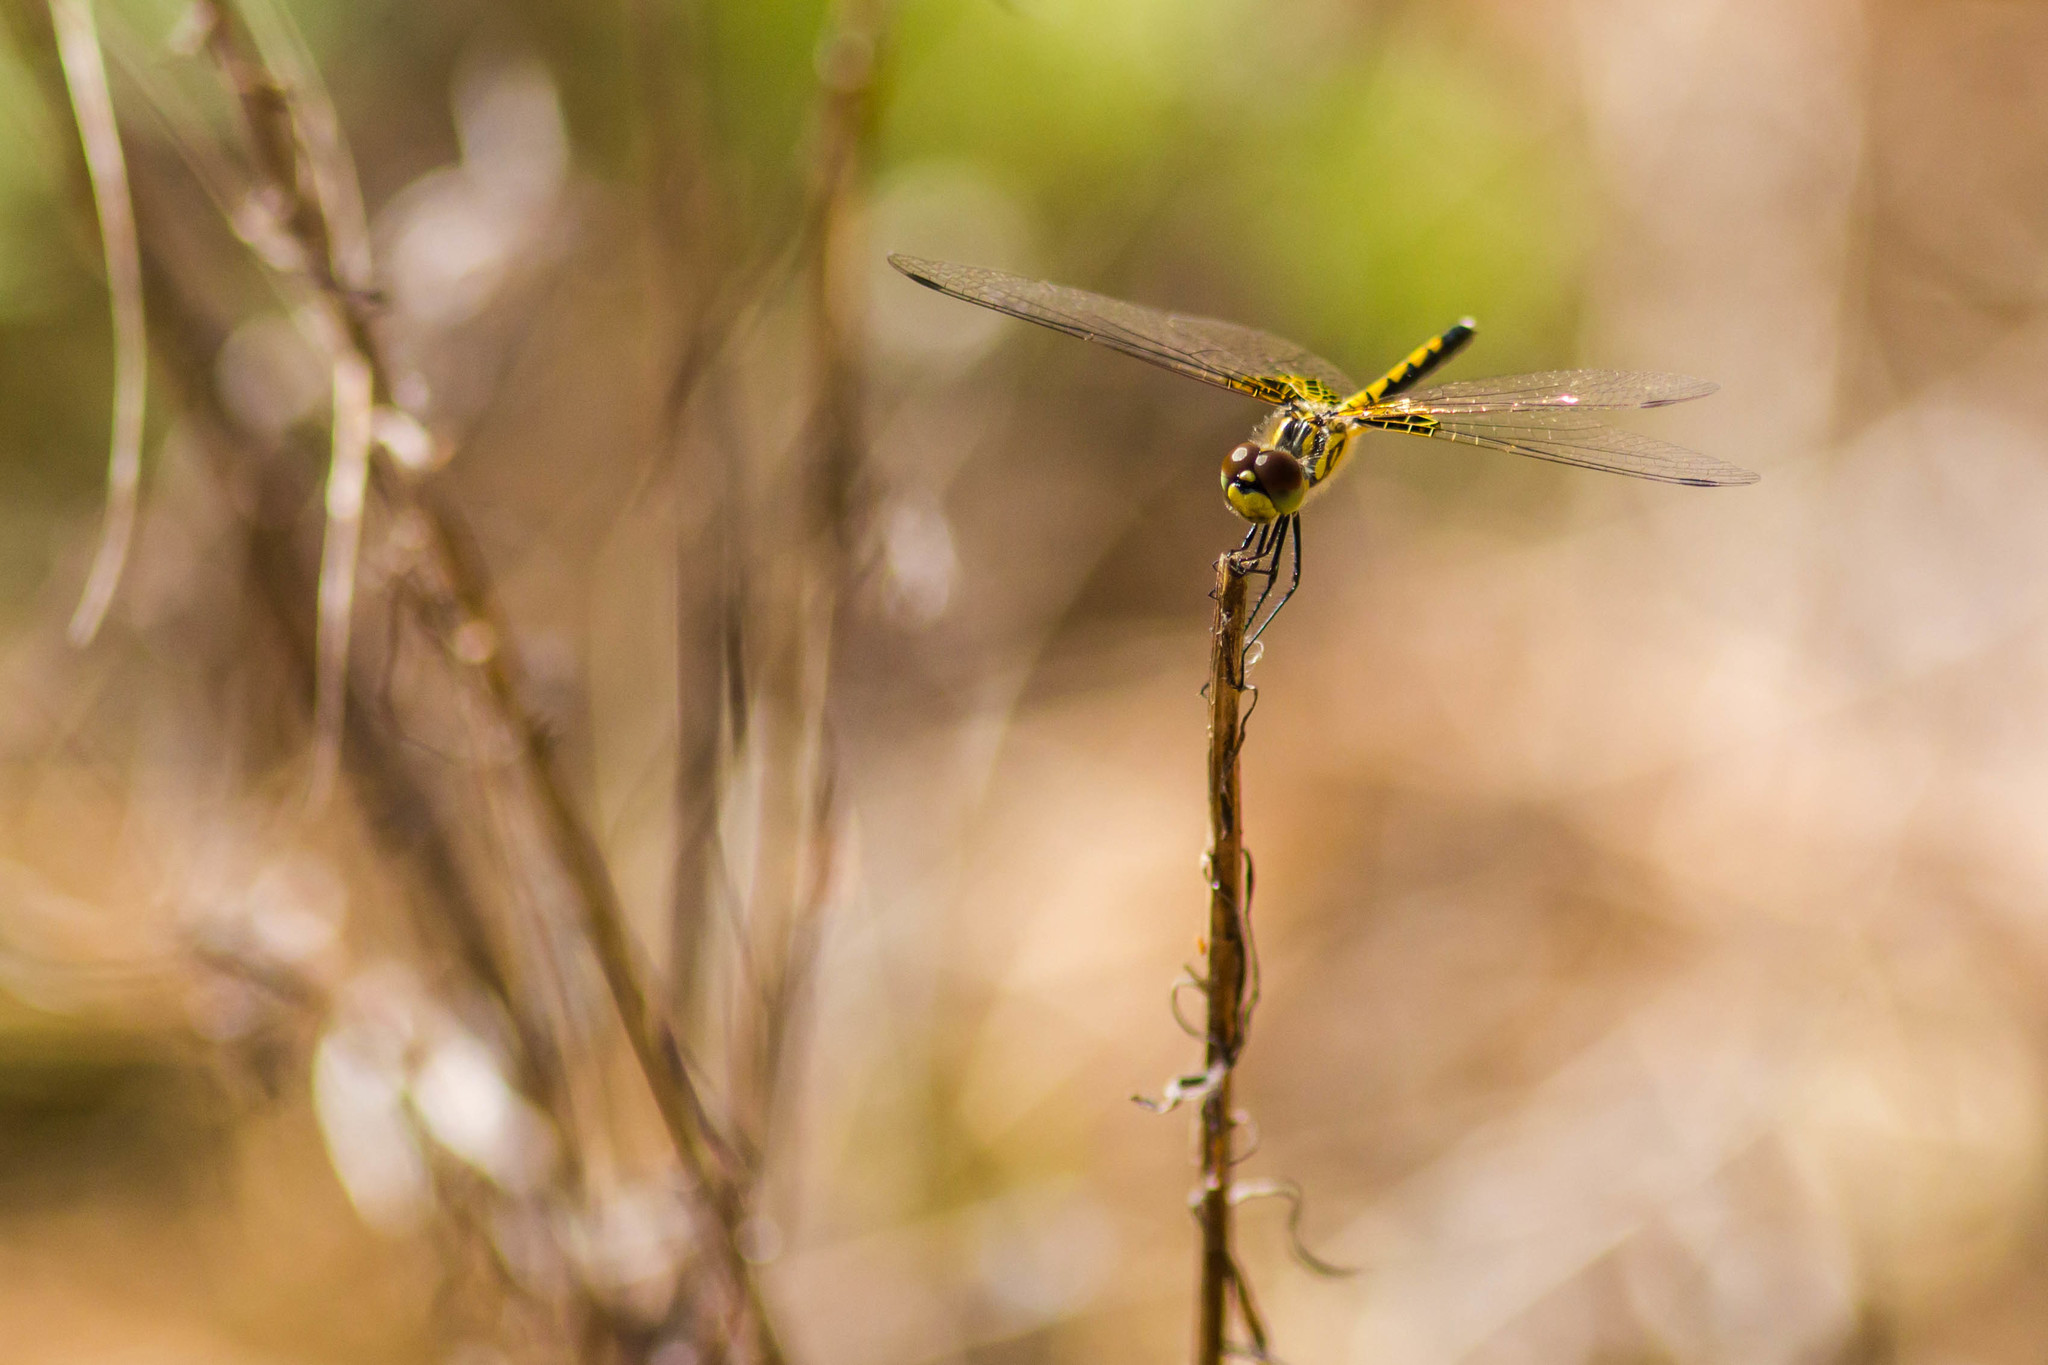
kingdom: Animalia
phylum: Arthropoda
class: Insecta
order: Odonata
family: Libellulidae
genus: Celithemis
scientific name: Celithemis ornata
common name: Ornate pennant
